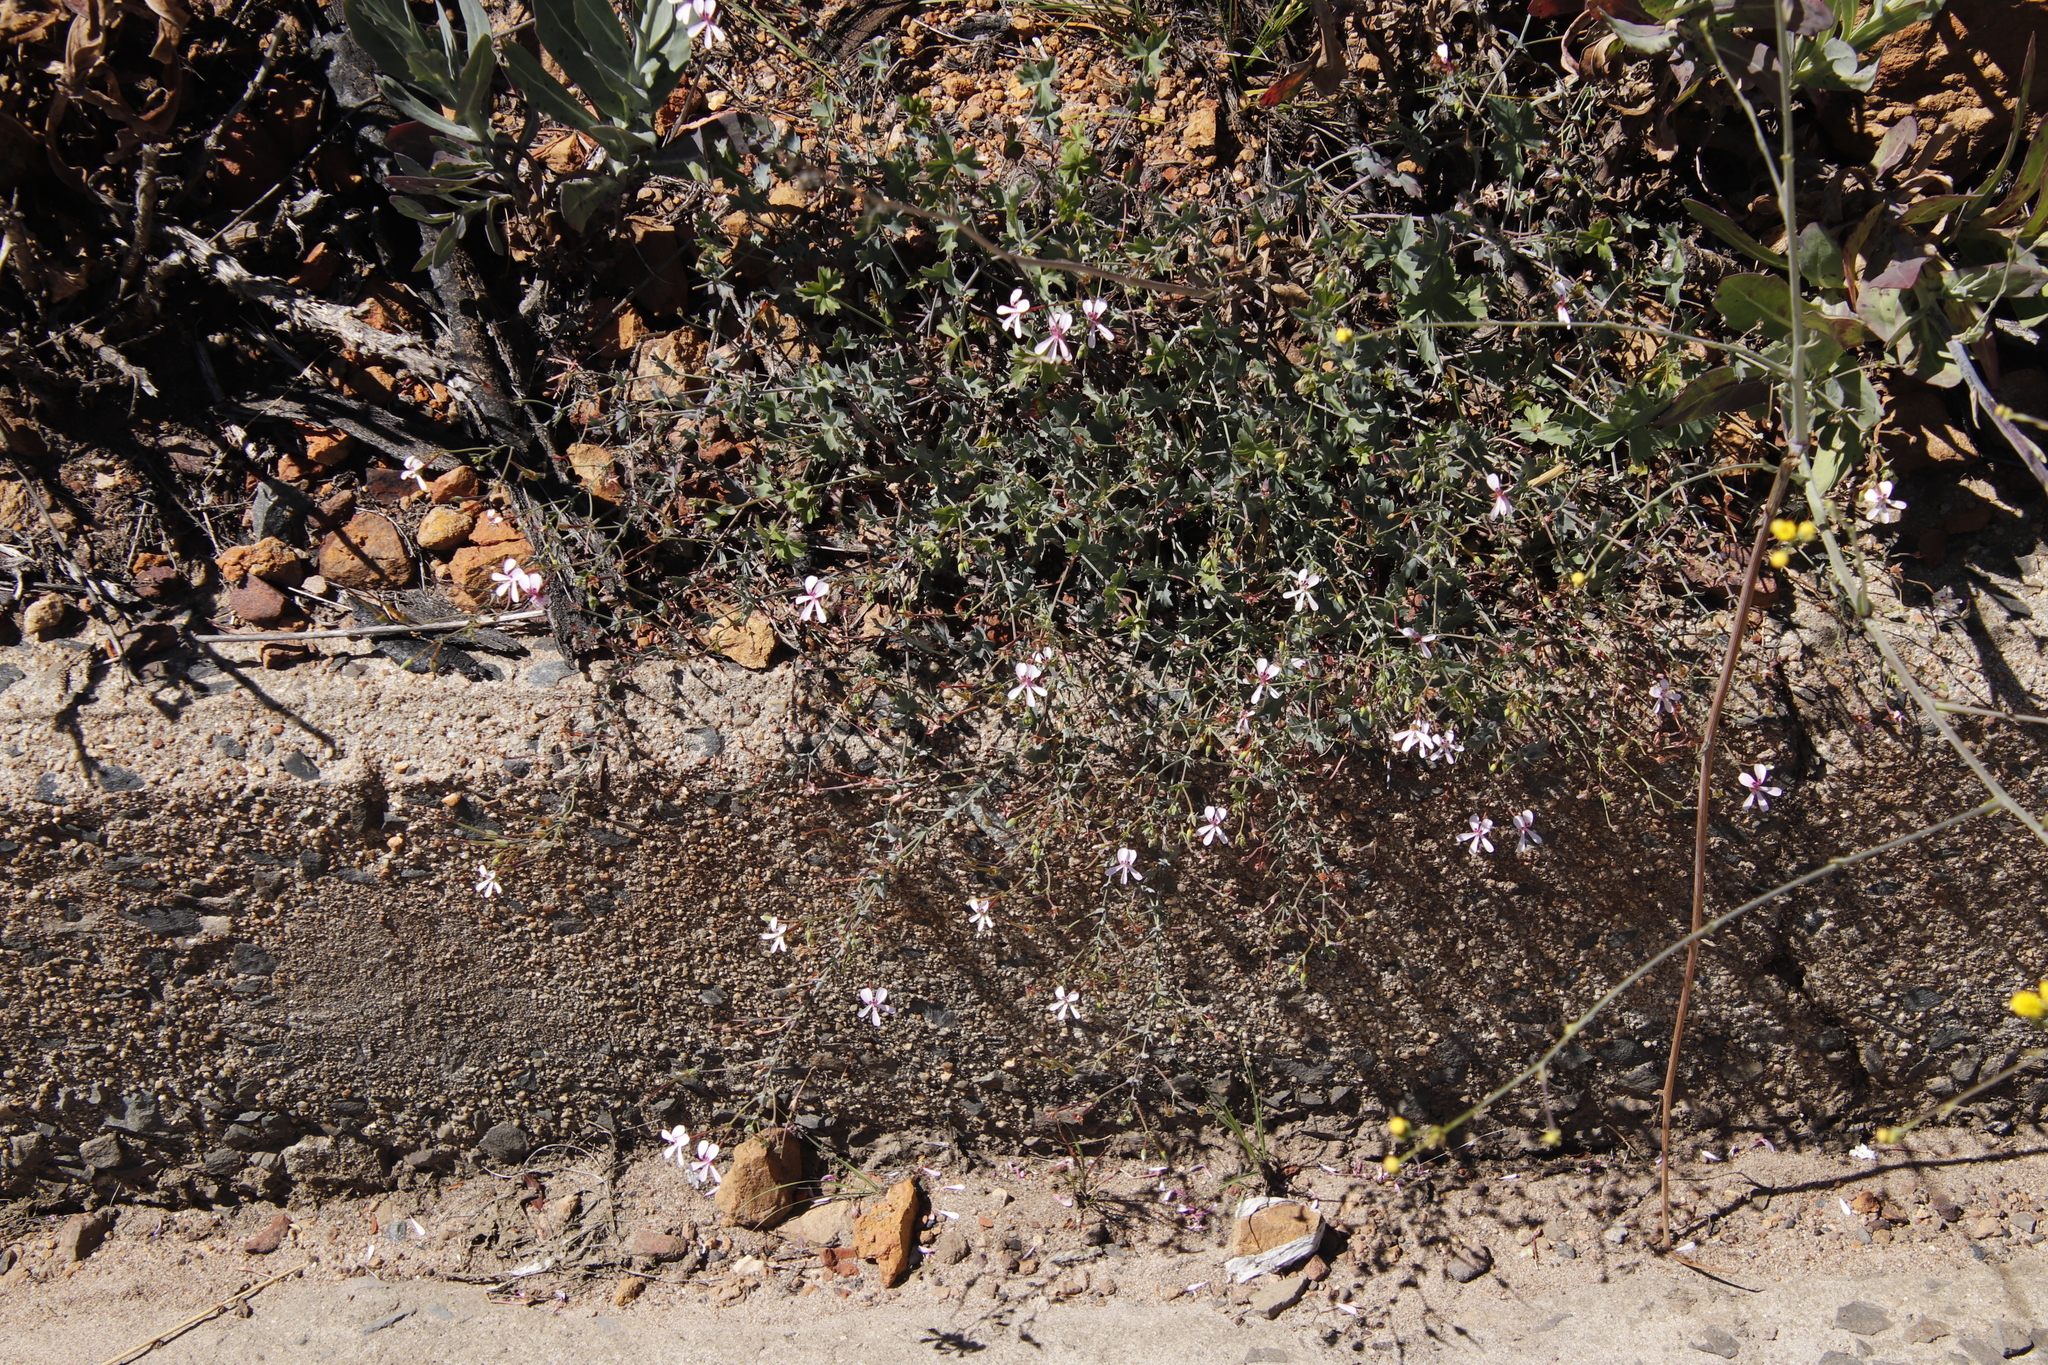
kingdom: Plantae
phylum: Tracheophyta
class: Magnoliopsida
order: Geraniales
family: Geraniaceae
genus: Pelargonium
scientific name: Pelargonium patulum
